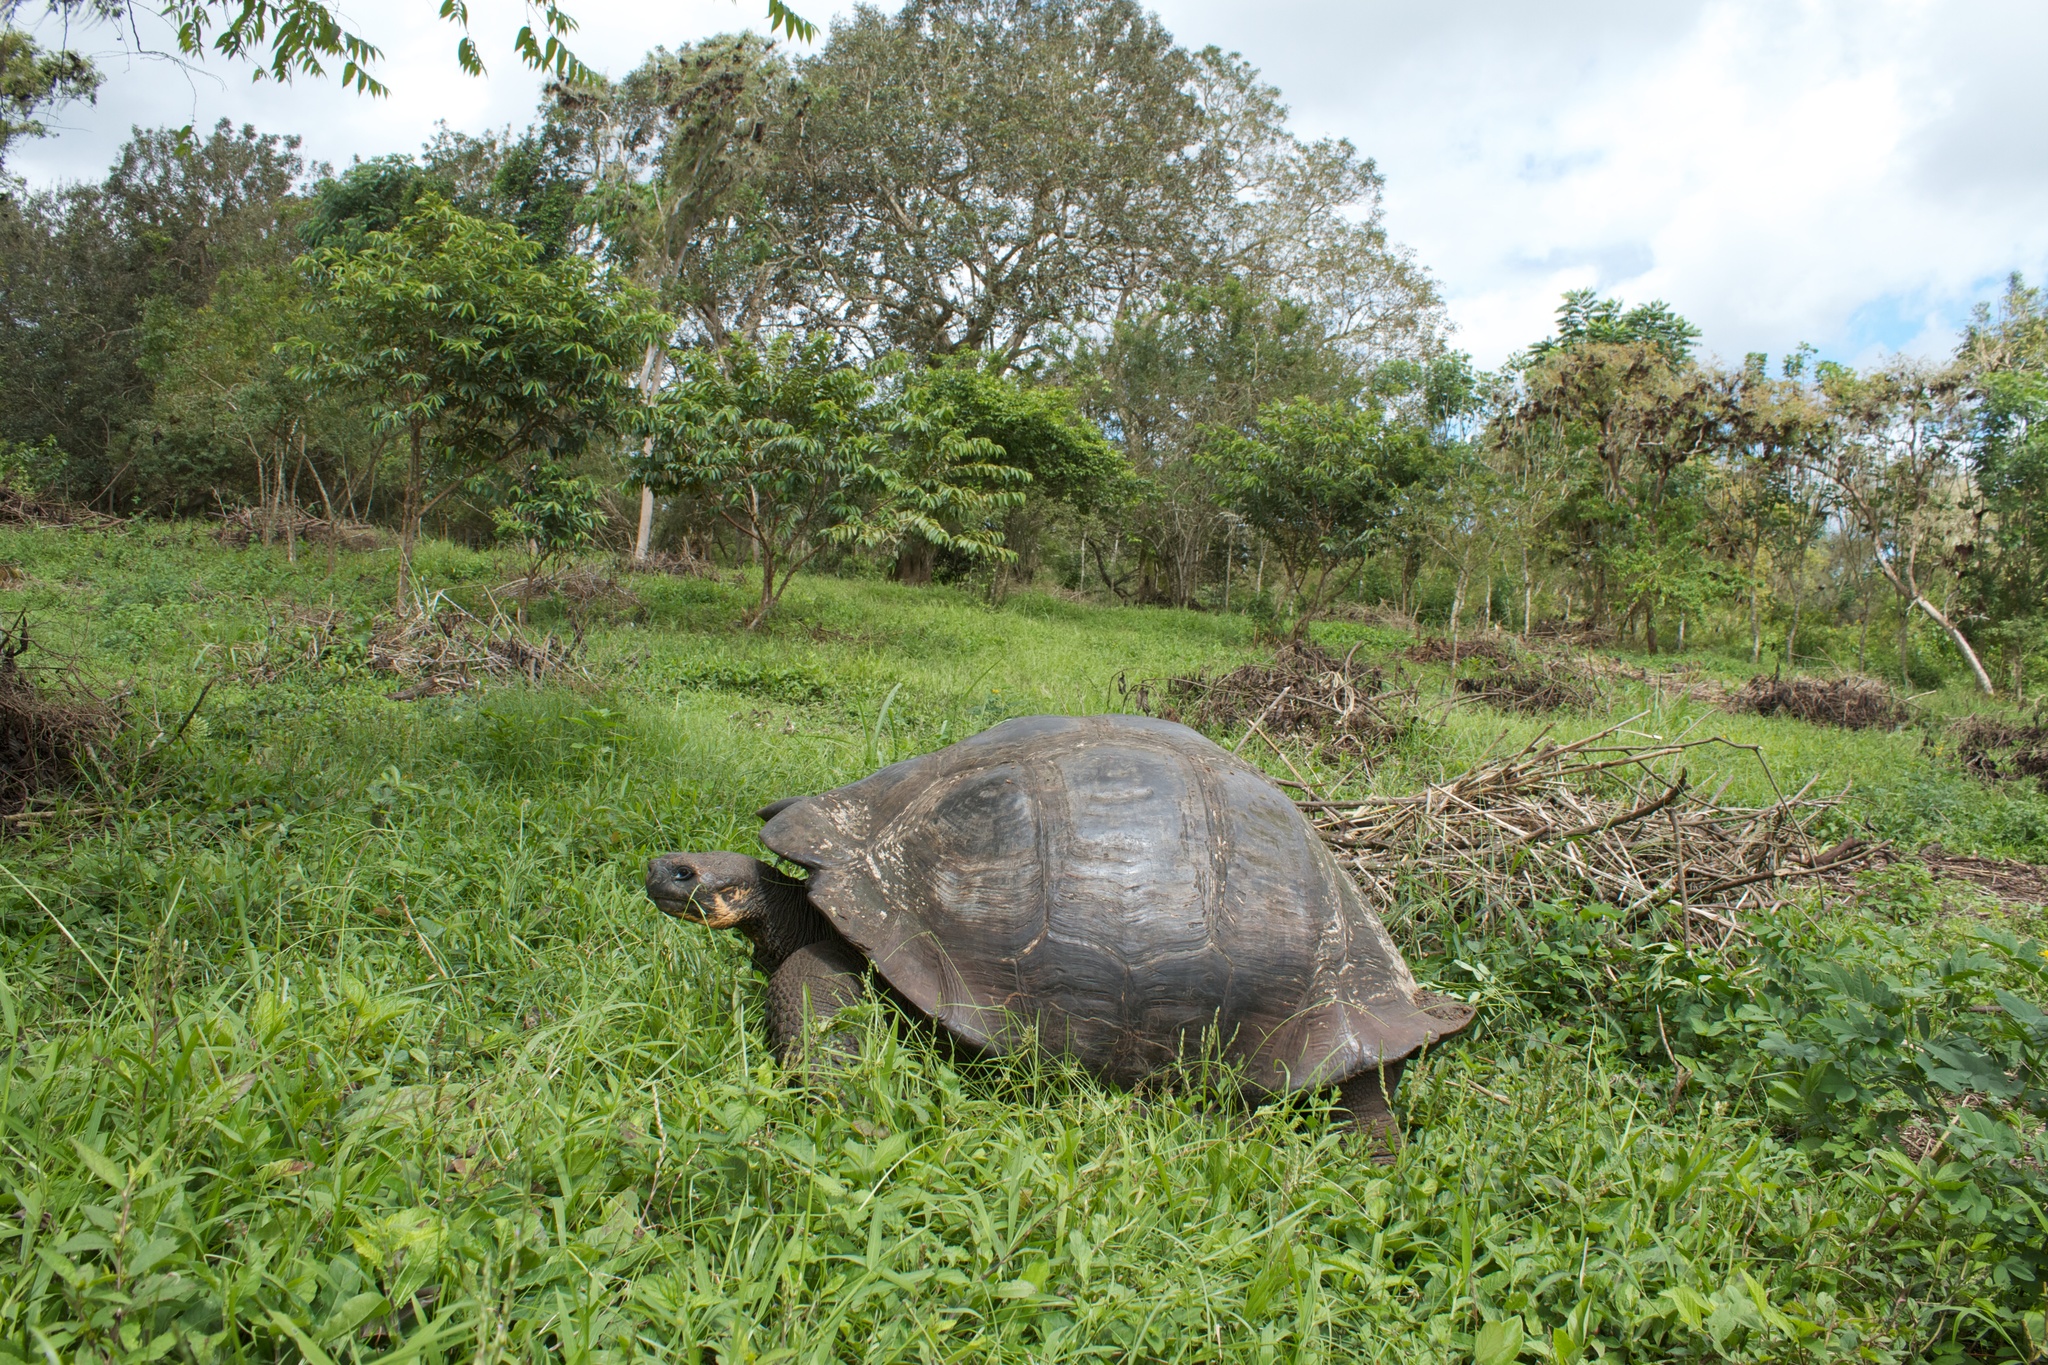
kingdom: Animalia
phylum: Chordata
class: Testudines
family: Testudinidae
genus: Chelonoidis
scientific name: Chelonoidis porteri
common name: Indefatigable island giant tortoise
